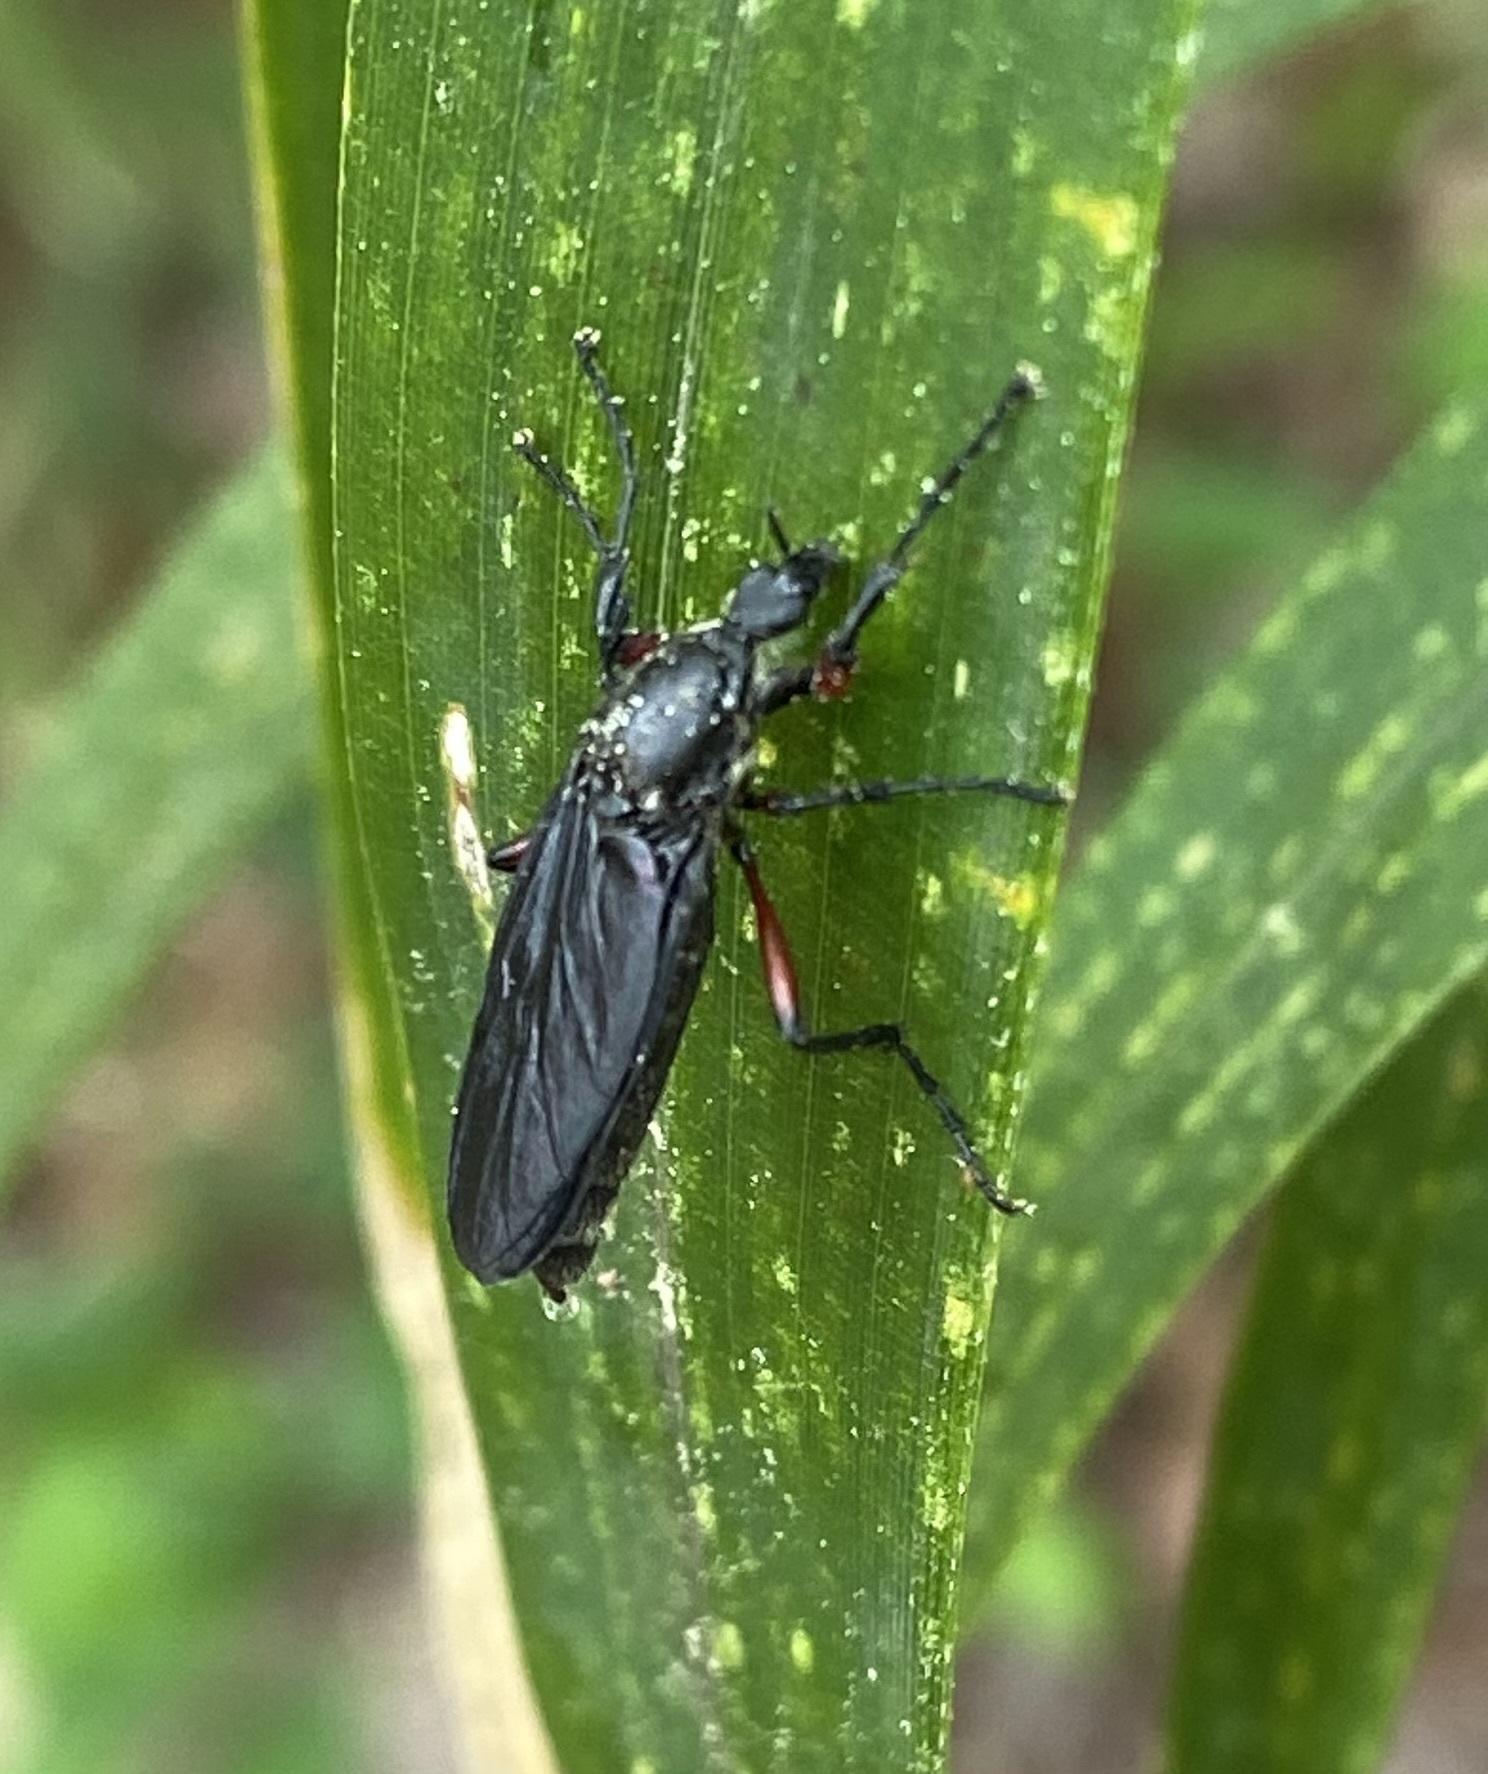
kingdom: Animalia
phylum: Arthropoda
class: Insecta
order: Diptera
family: Bibionidae
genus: Bibio
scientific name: Bibio femoratus
